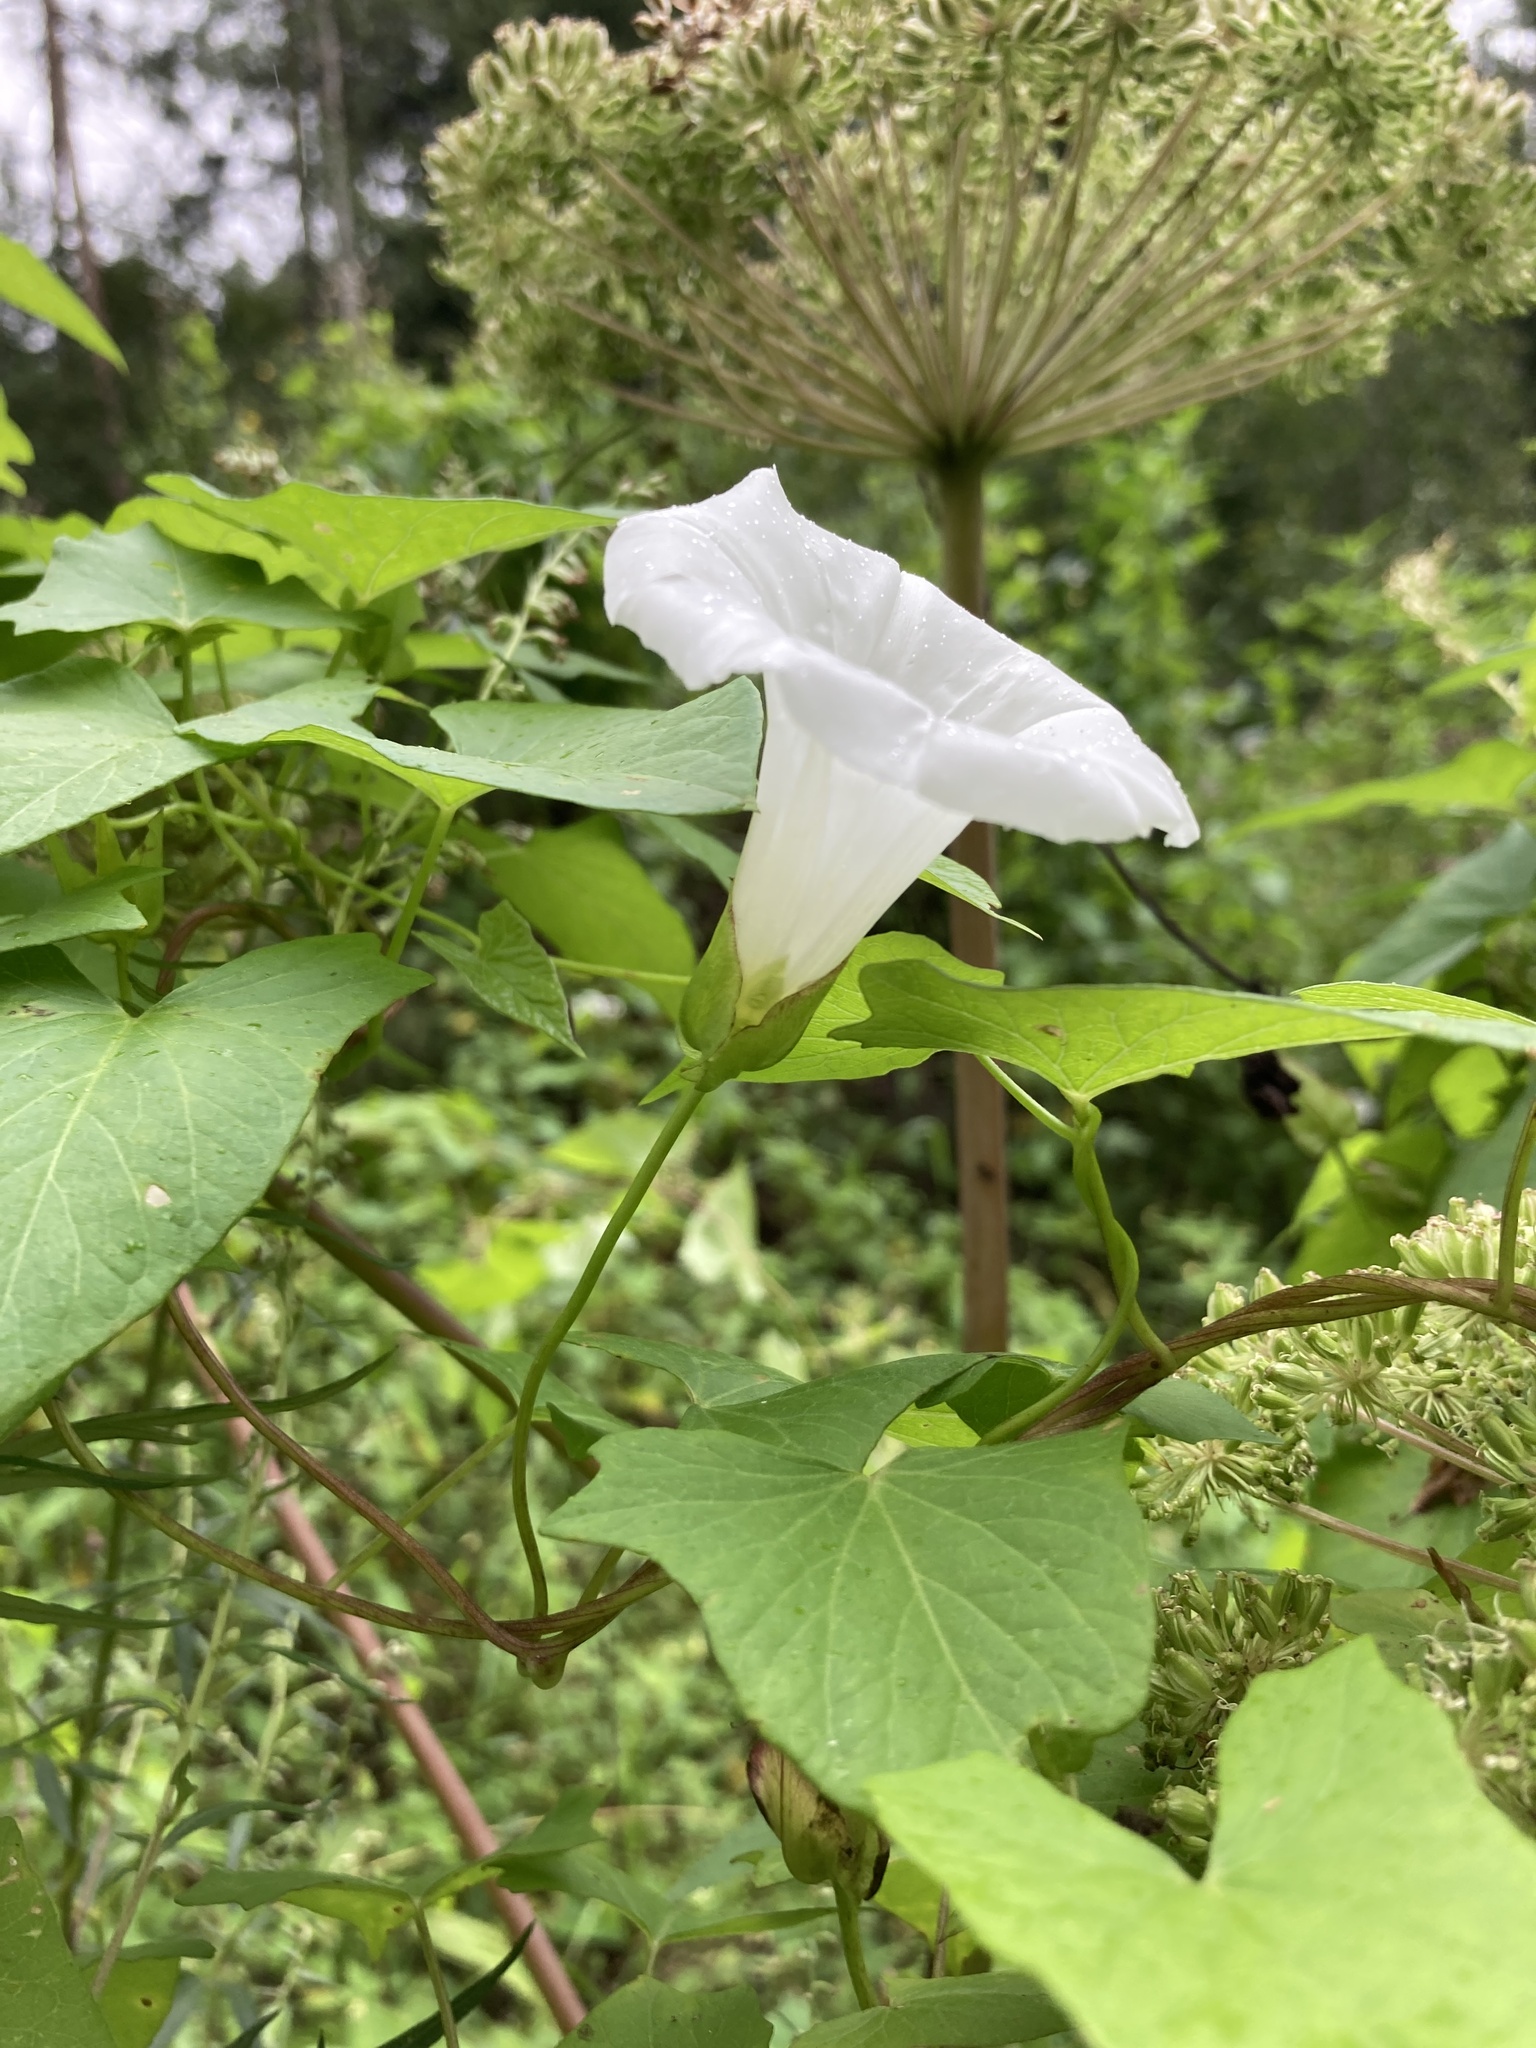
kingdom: Plantae
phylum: Tracheophyta
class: Magnoliopsida
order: Solanales
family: Convolvulaceae
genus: Calystegia
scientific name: Calystegia sepium
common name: Hedge bindweed
